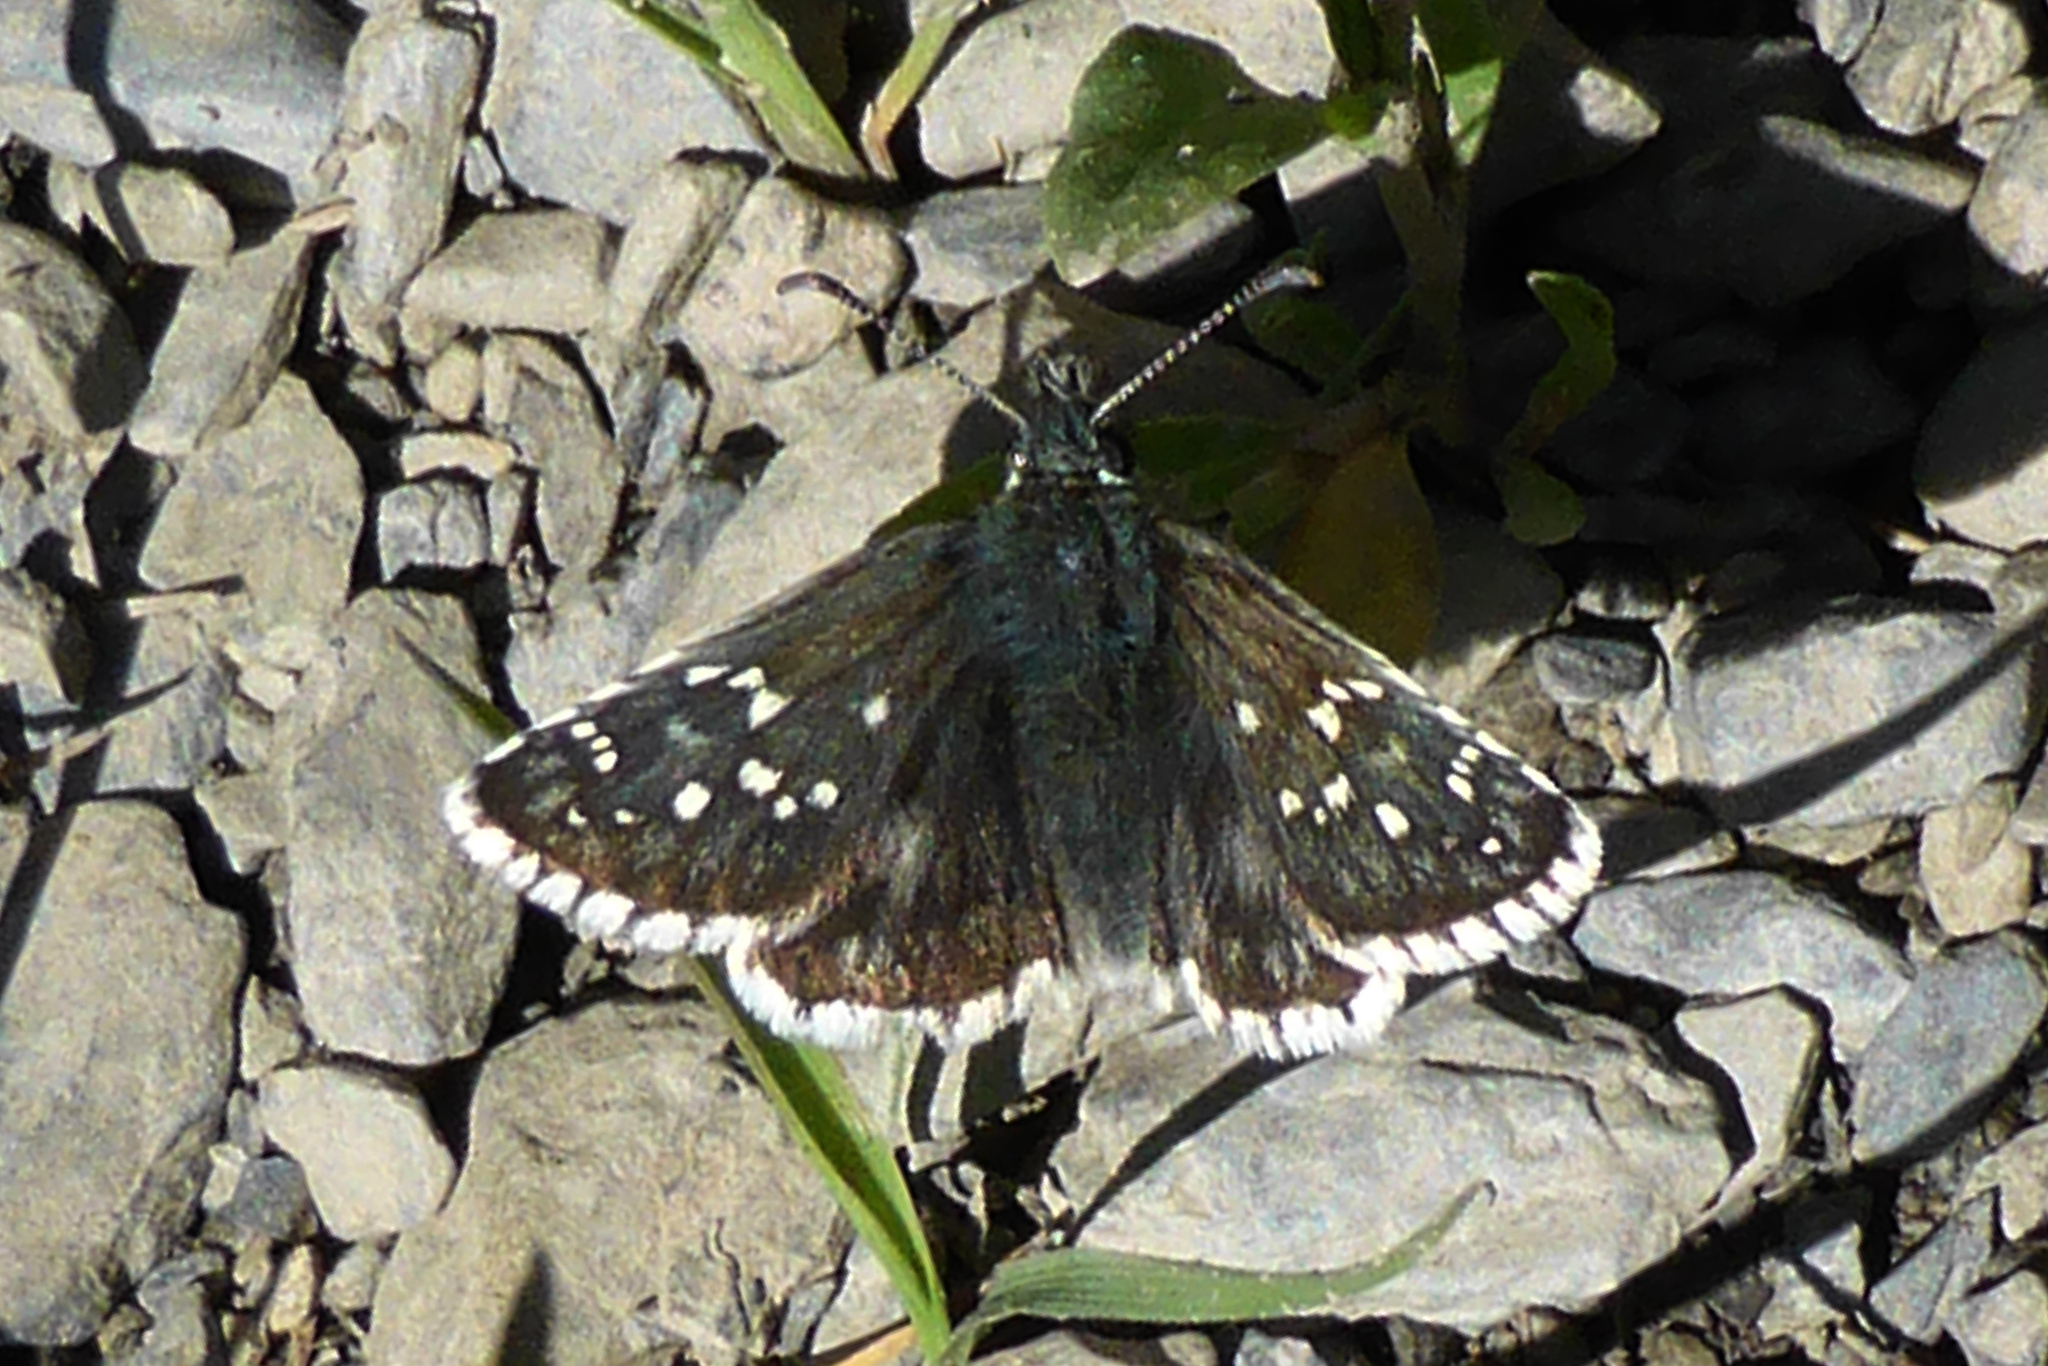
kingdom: Animalia
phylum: Arthropoda
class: Insecta
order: Lepidoptera
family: Hesperiidae
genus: Pyrgus
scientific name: Pyrgus
